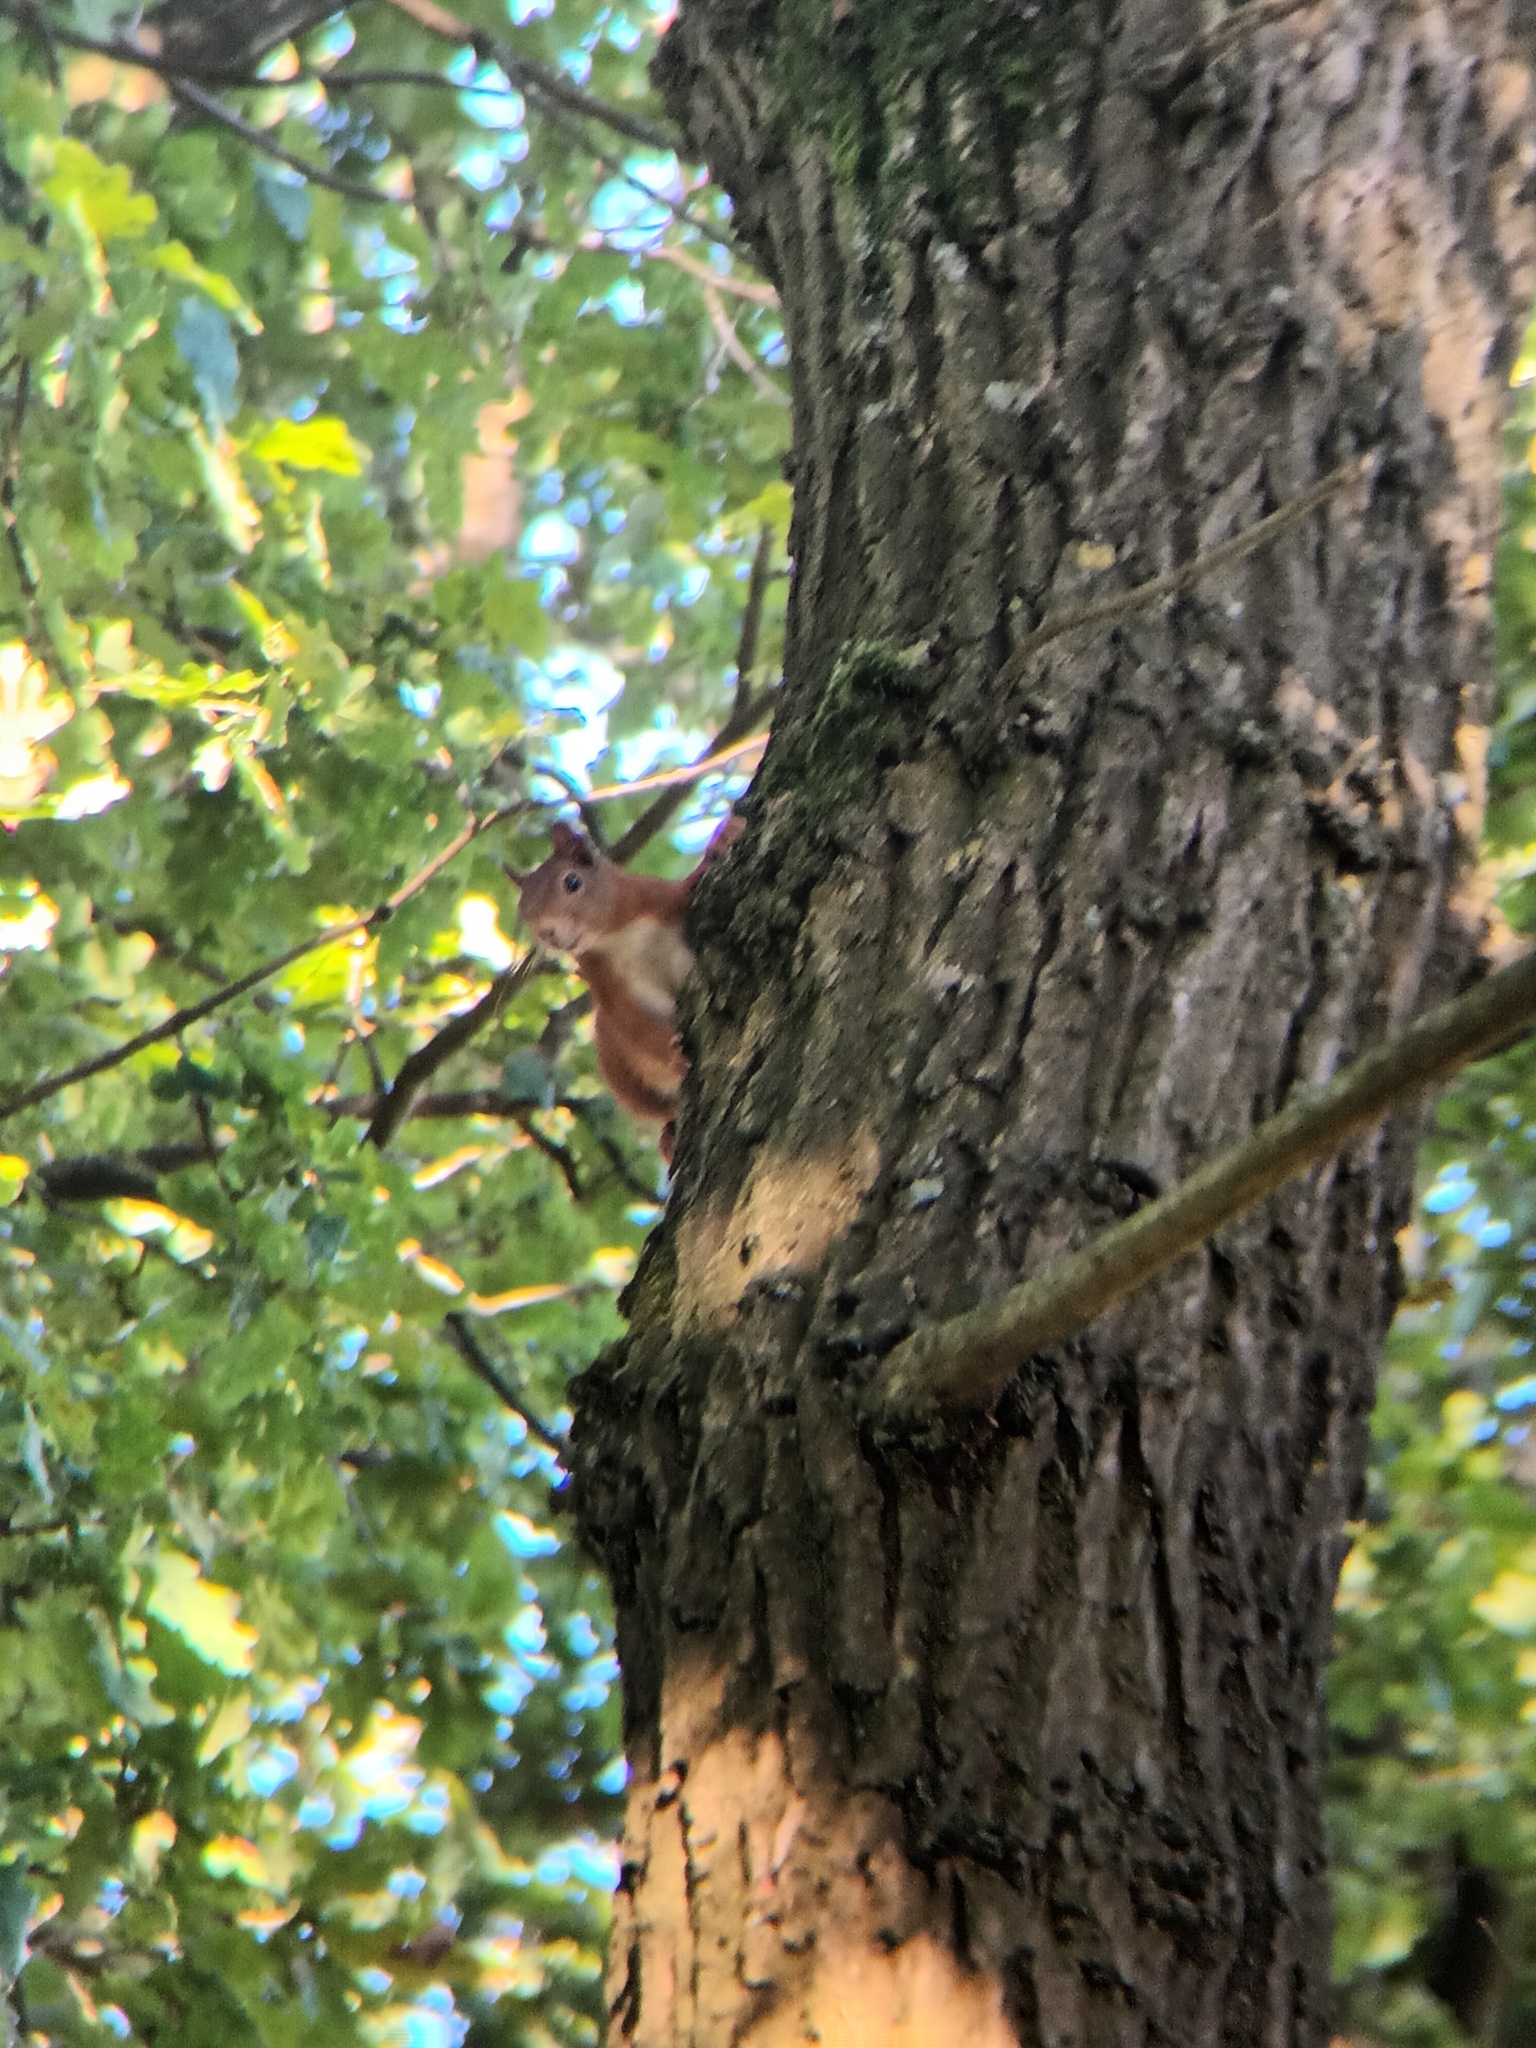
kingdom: Animalia
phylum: Chordata
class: Mammalia
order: Rodentia
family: Sciuridae
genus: Sciurus
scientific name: Sciurus vulgaris
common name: Eurasian red squirrel
